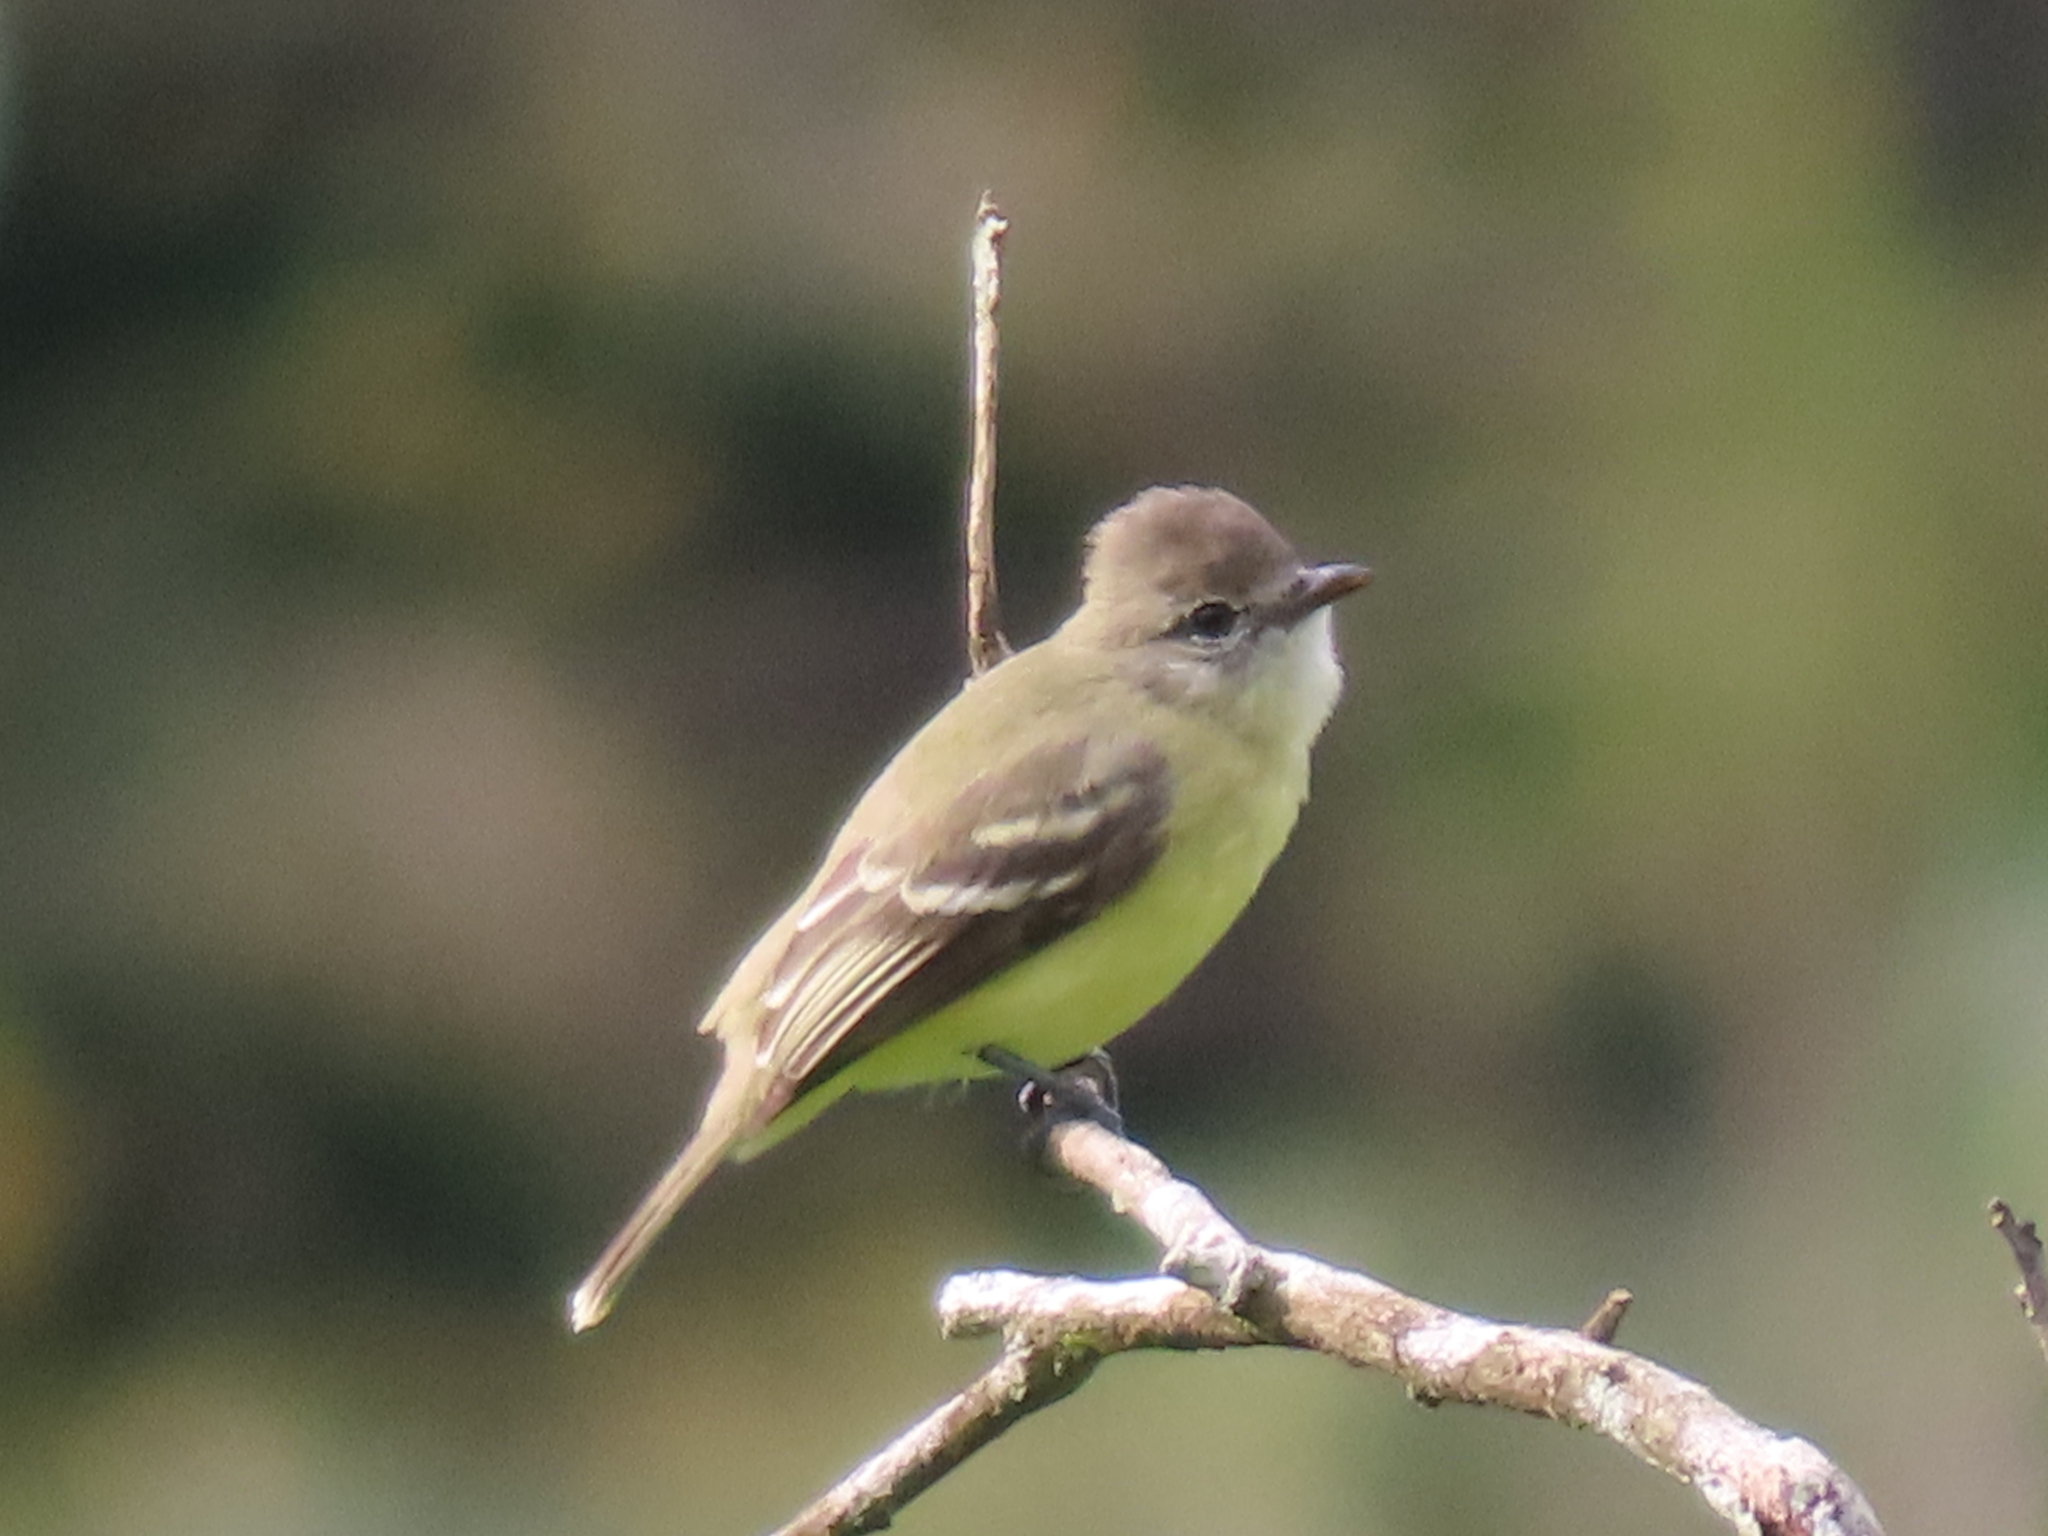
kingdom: Animalia
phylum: Chordata
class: Aves
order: Passeriformes
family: Tyrannidae
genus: Camptostoma
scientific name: Camptostoma obsoletum
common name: Southern beardless-tyrannulet
